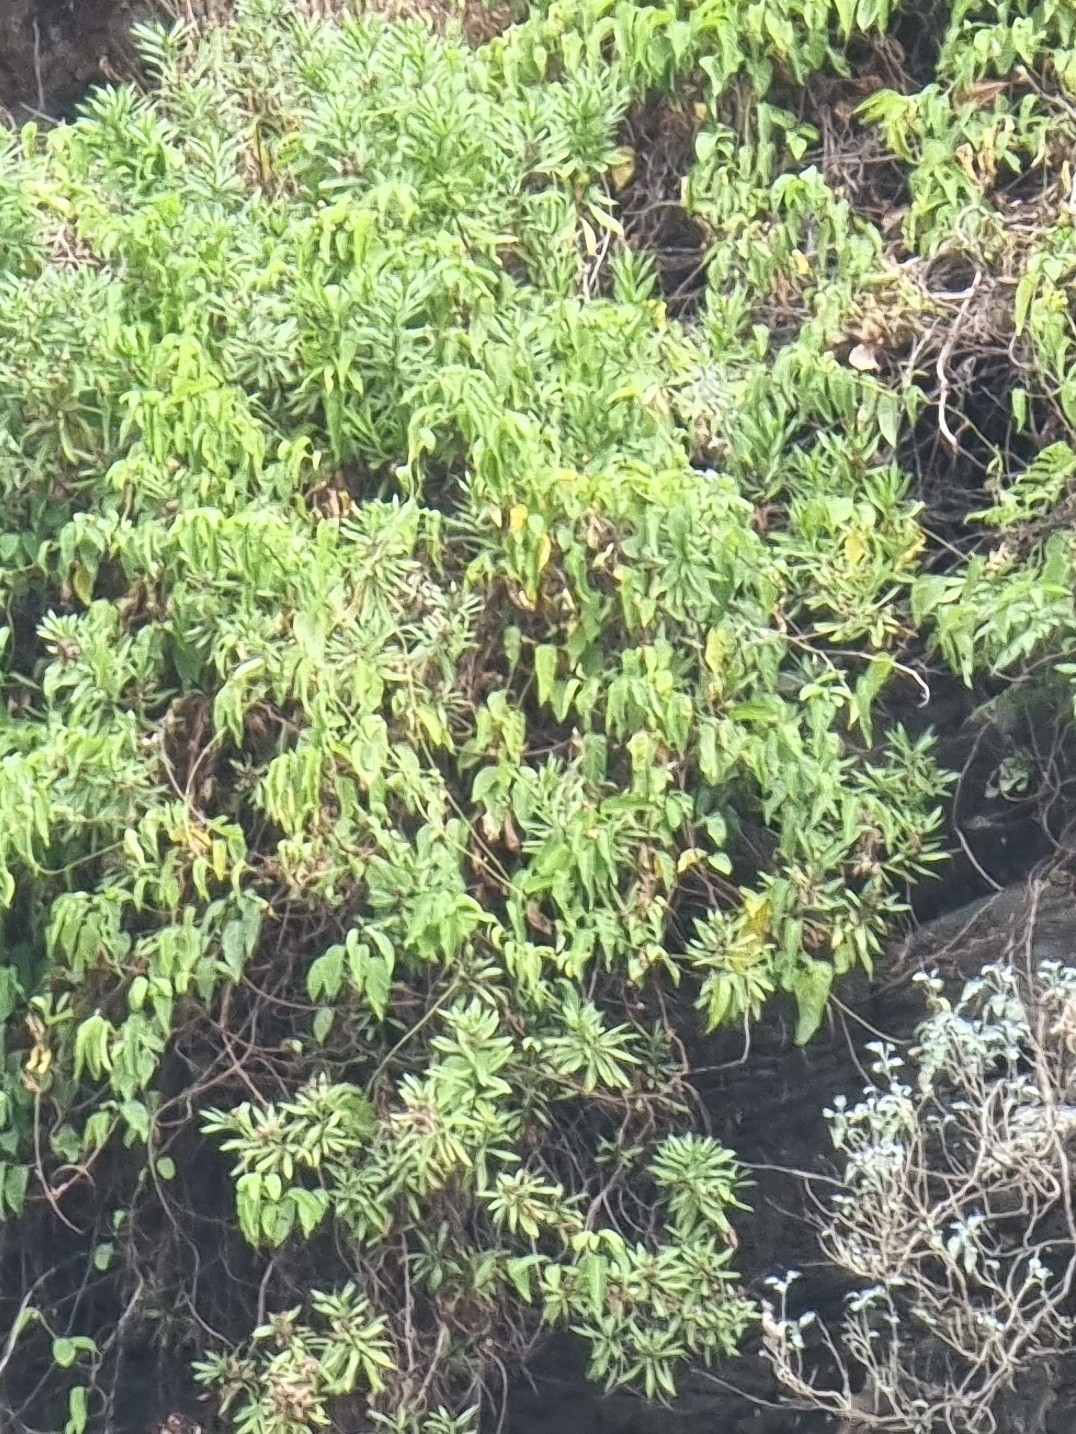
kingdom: Plantae
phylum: Tracheophyta
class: Magnoliopsida
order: Solanales
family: Convolvulaceae
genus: Convolvulus
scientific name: Convolvulus massonii
